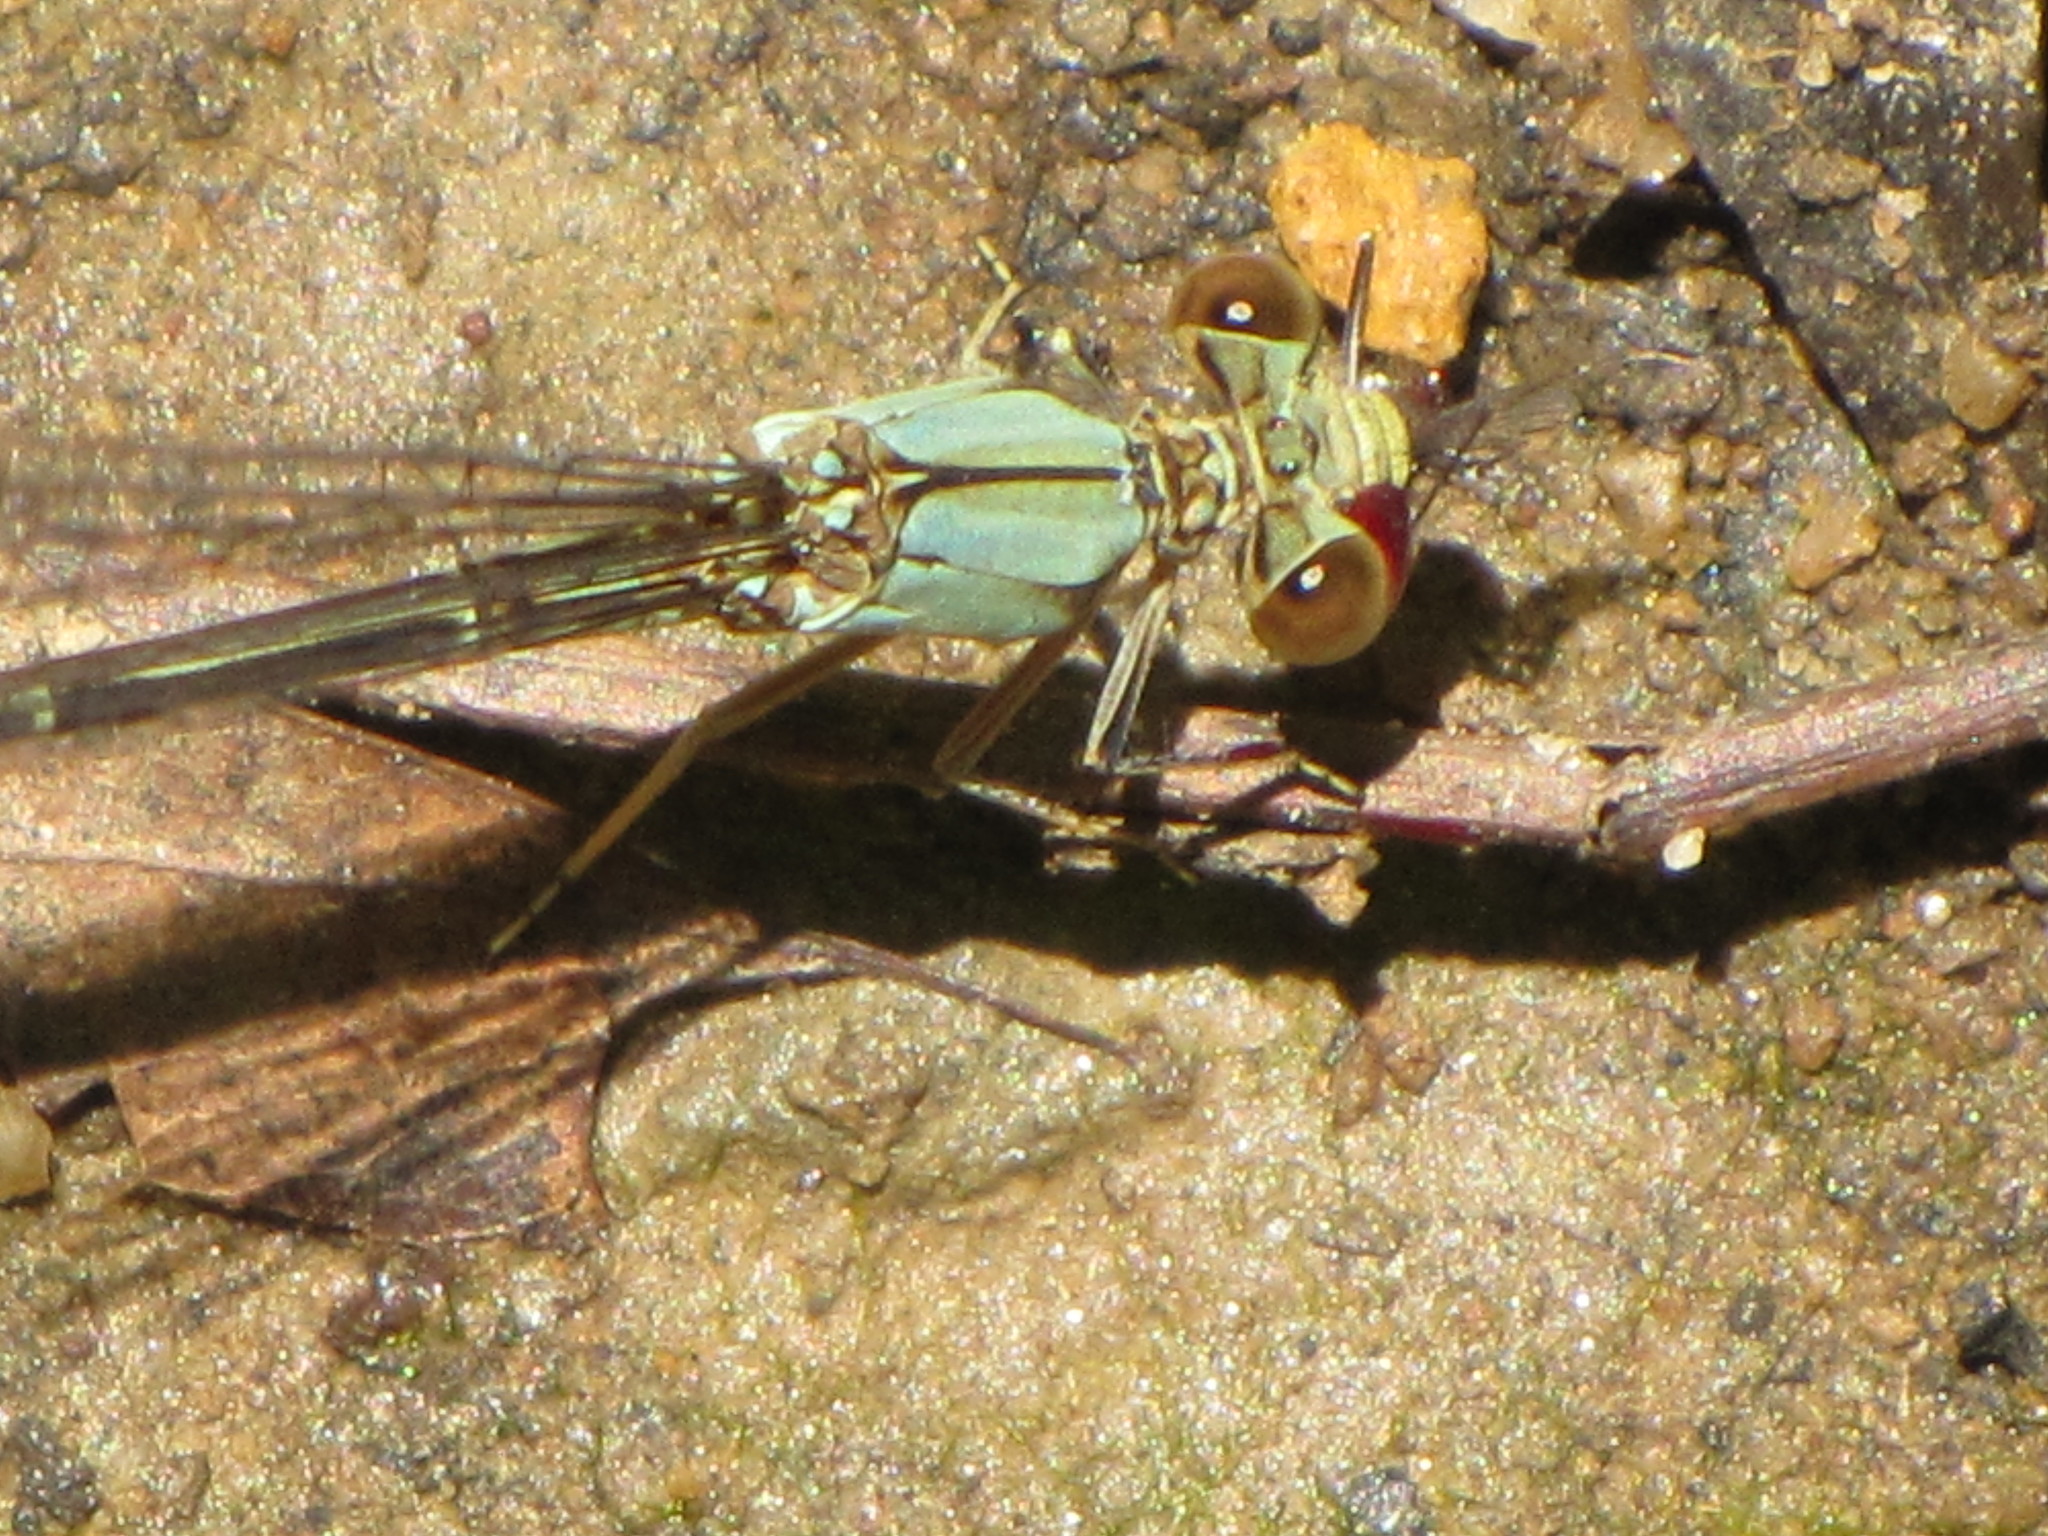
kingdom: Animalia
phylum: Arthropoda
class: Insecta
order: Odonata
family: Coenagrionidae
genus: Argia
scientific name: Argia apicalis
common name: Blue-fronted dancer
